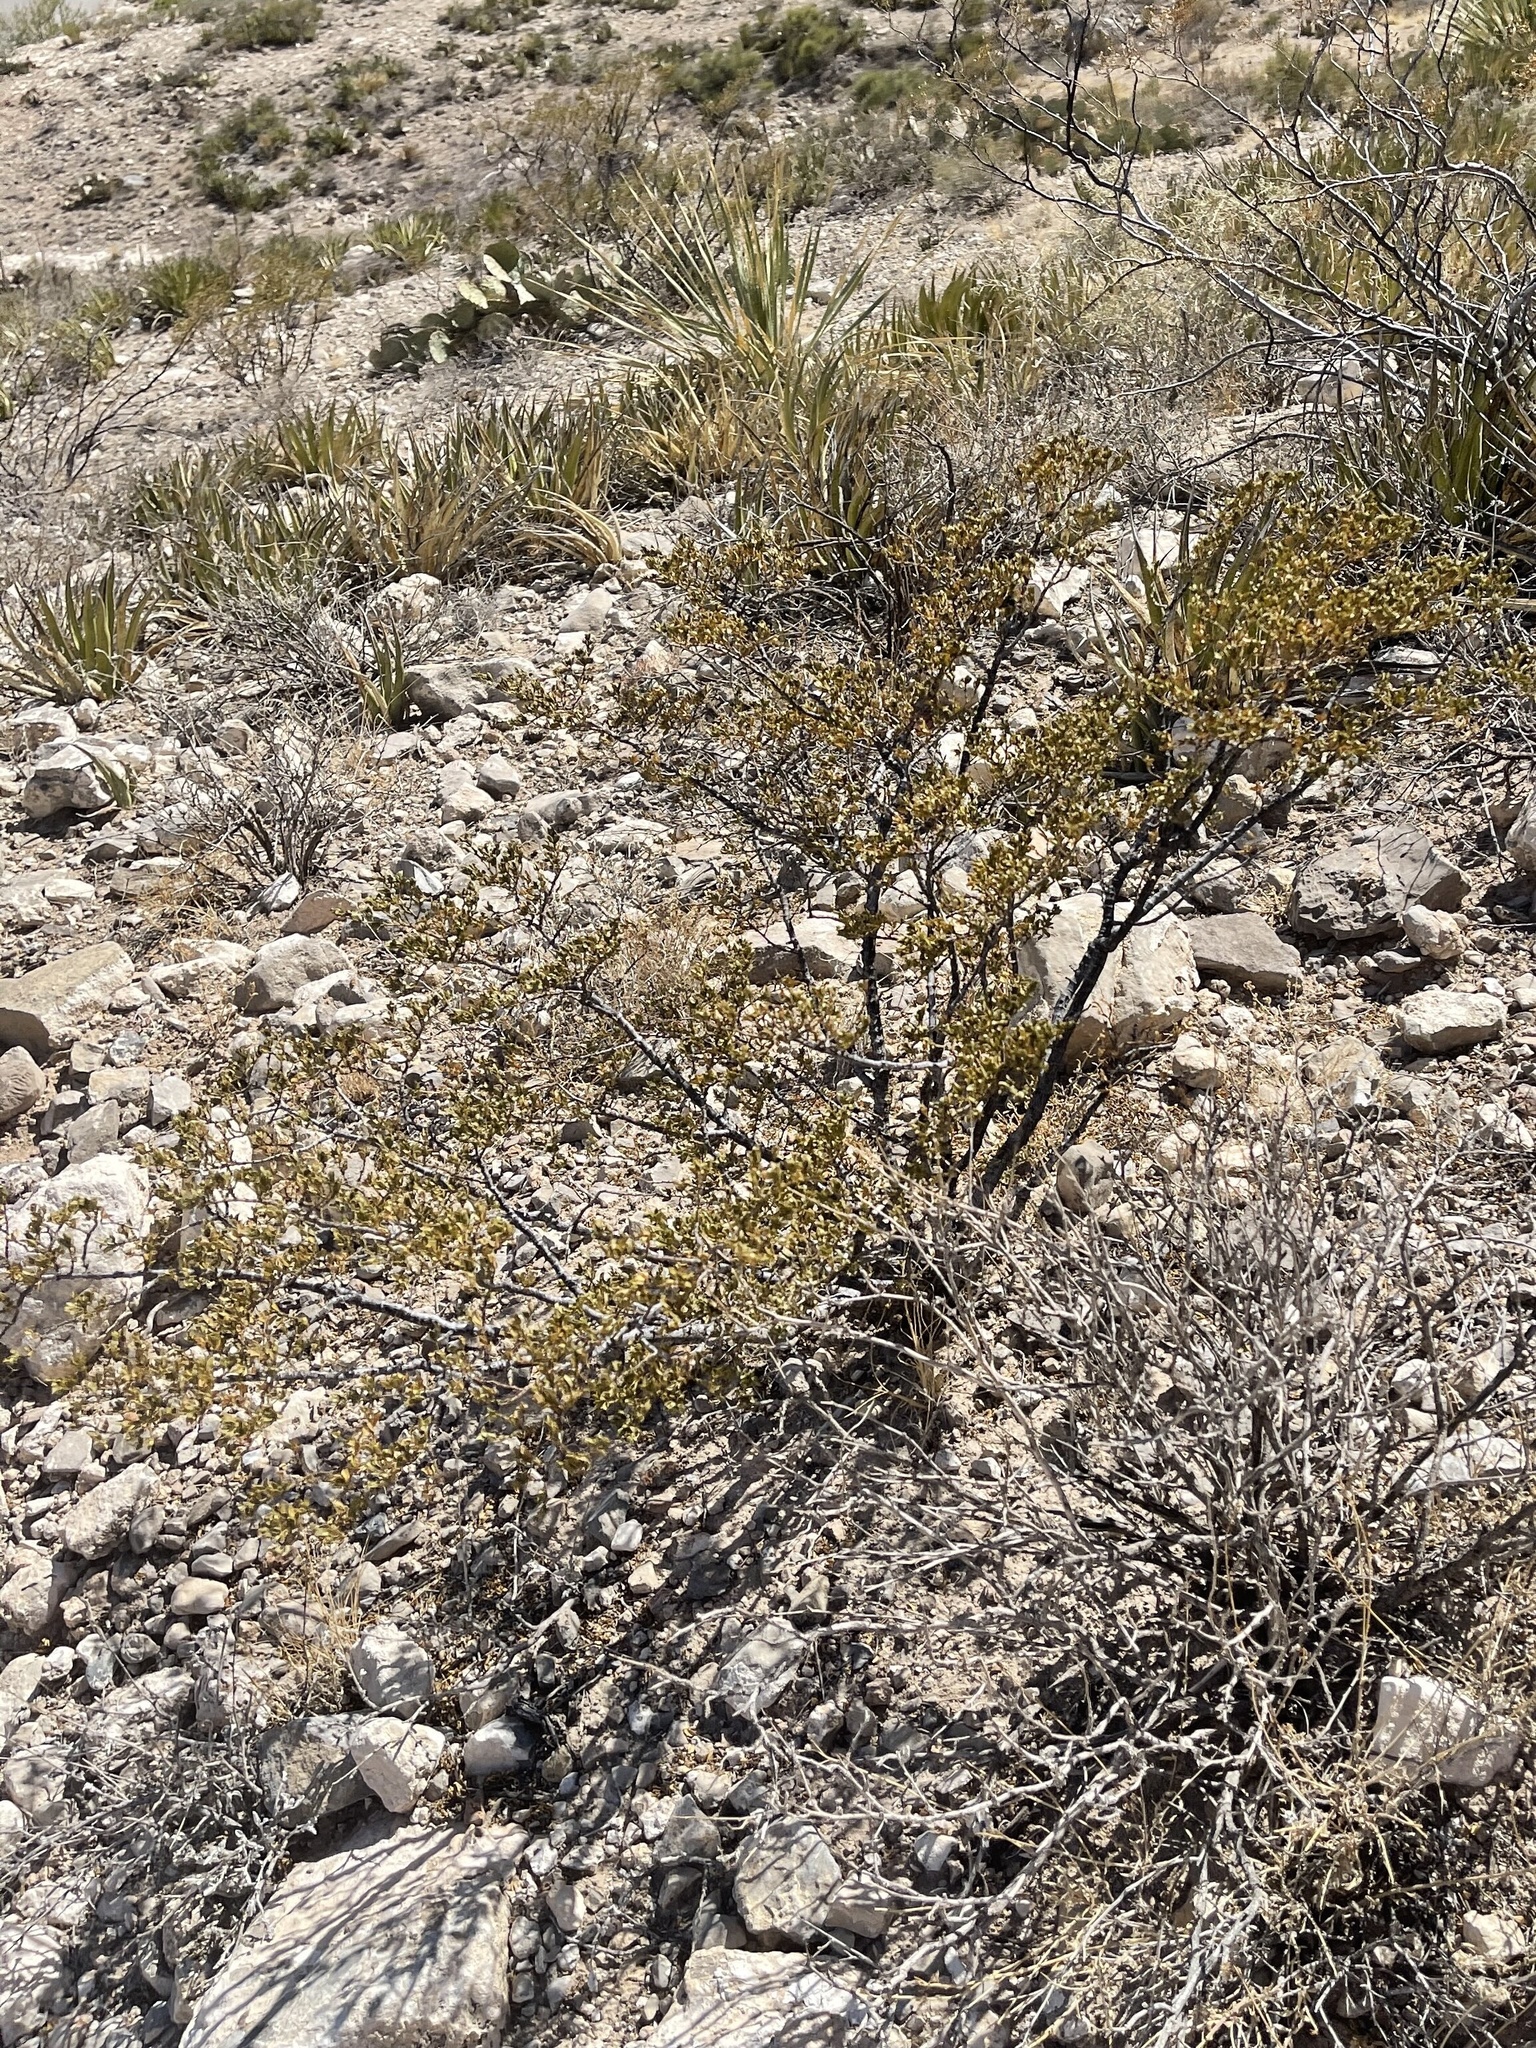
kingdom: Plantae
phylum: Tracheophyta
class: Magnoliopsida
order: Zygophyllales
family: Zygophyllaceae
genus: Larrea
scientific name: Larrea tridentata
